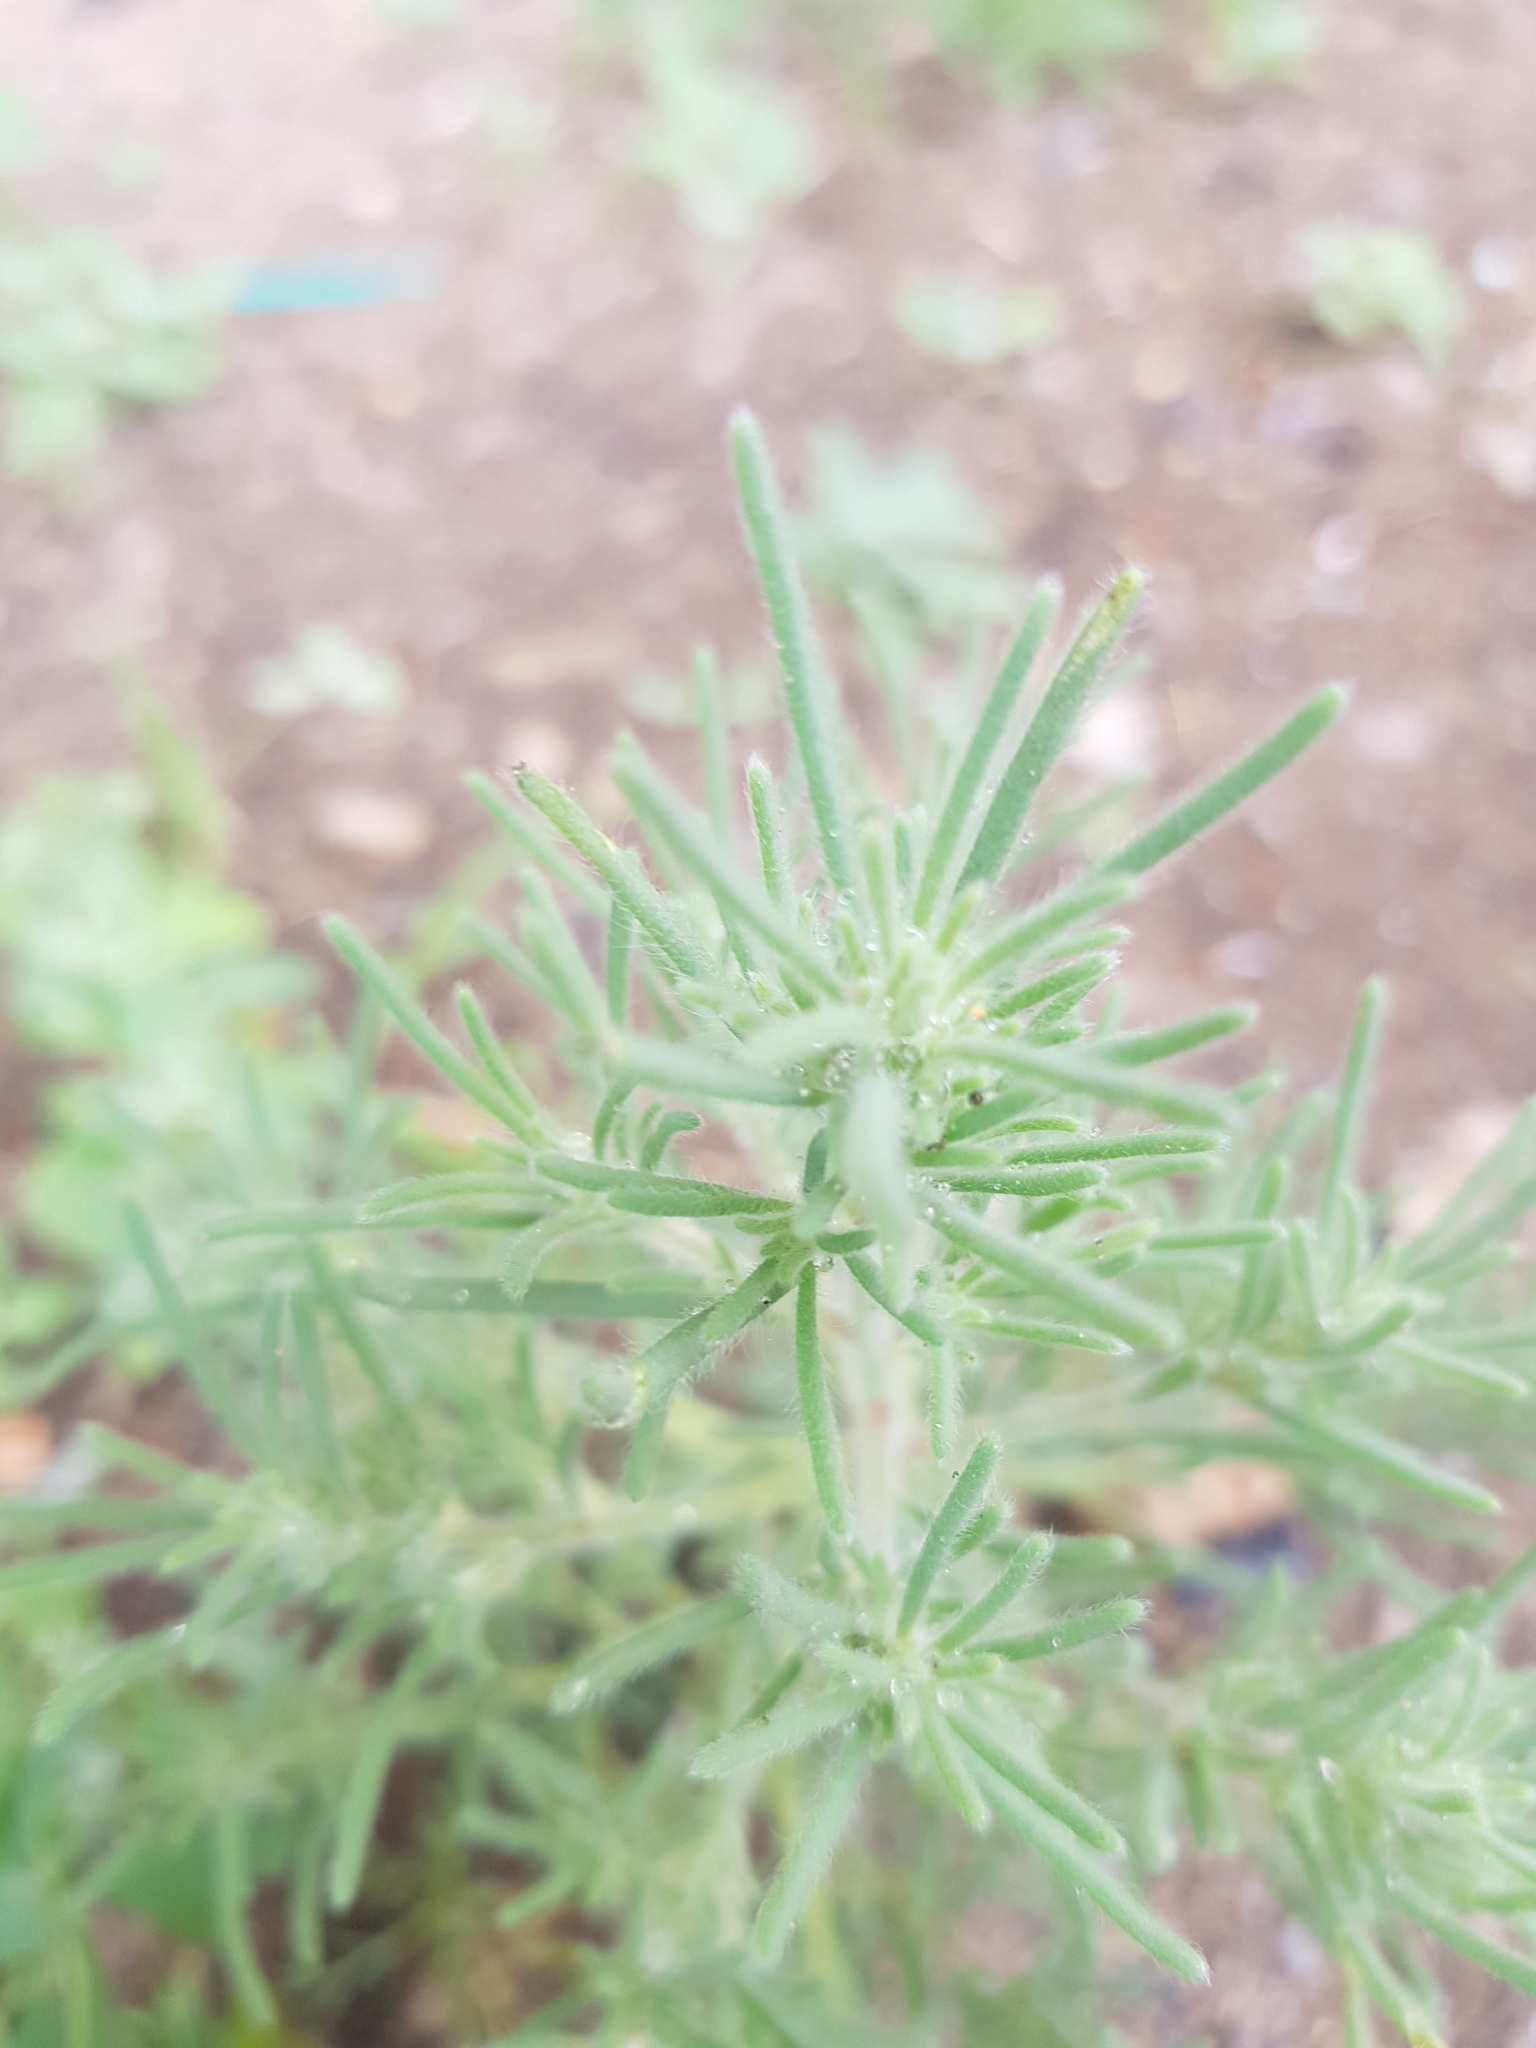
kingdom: Plantae
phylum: Tracheophyta
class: Magnoliopsida
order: Caryophyllales
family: Amaranthaceae
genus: Grubovia
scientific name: Grubovia dasyphylla
